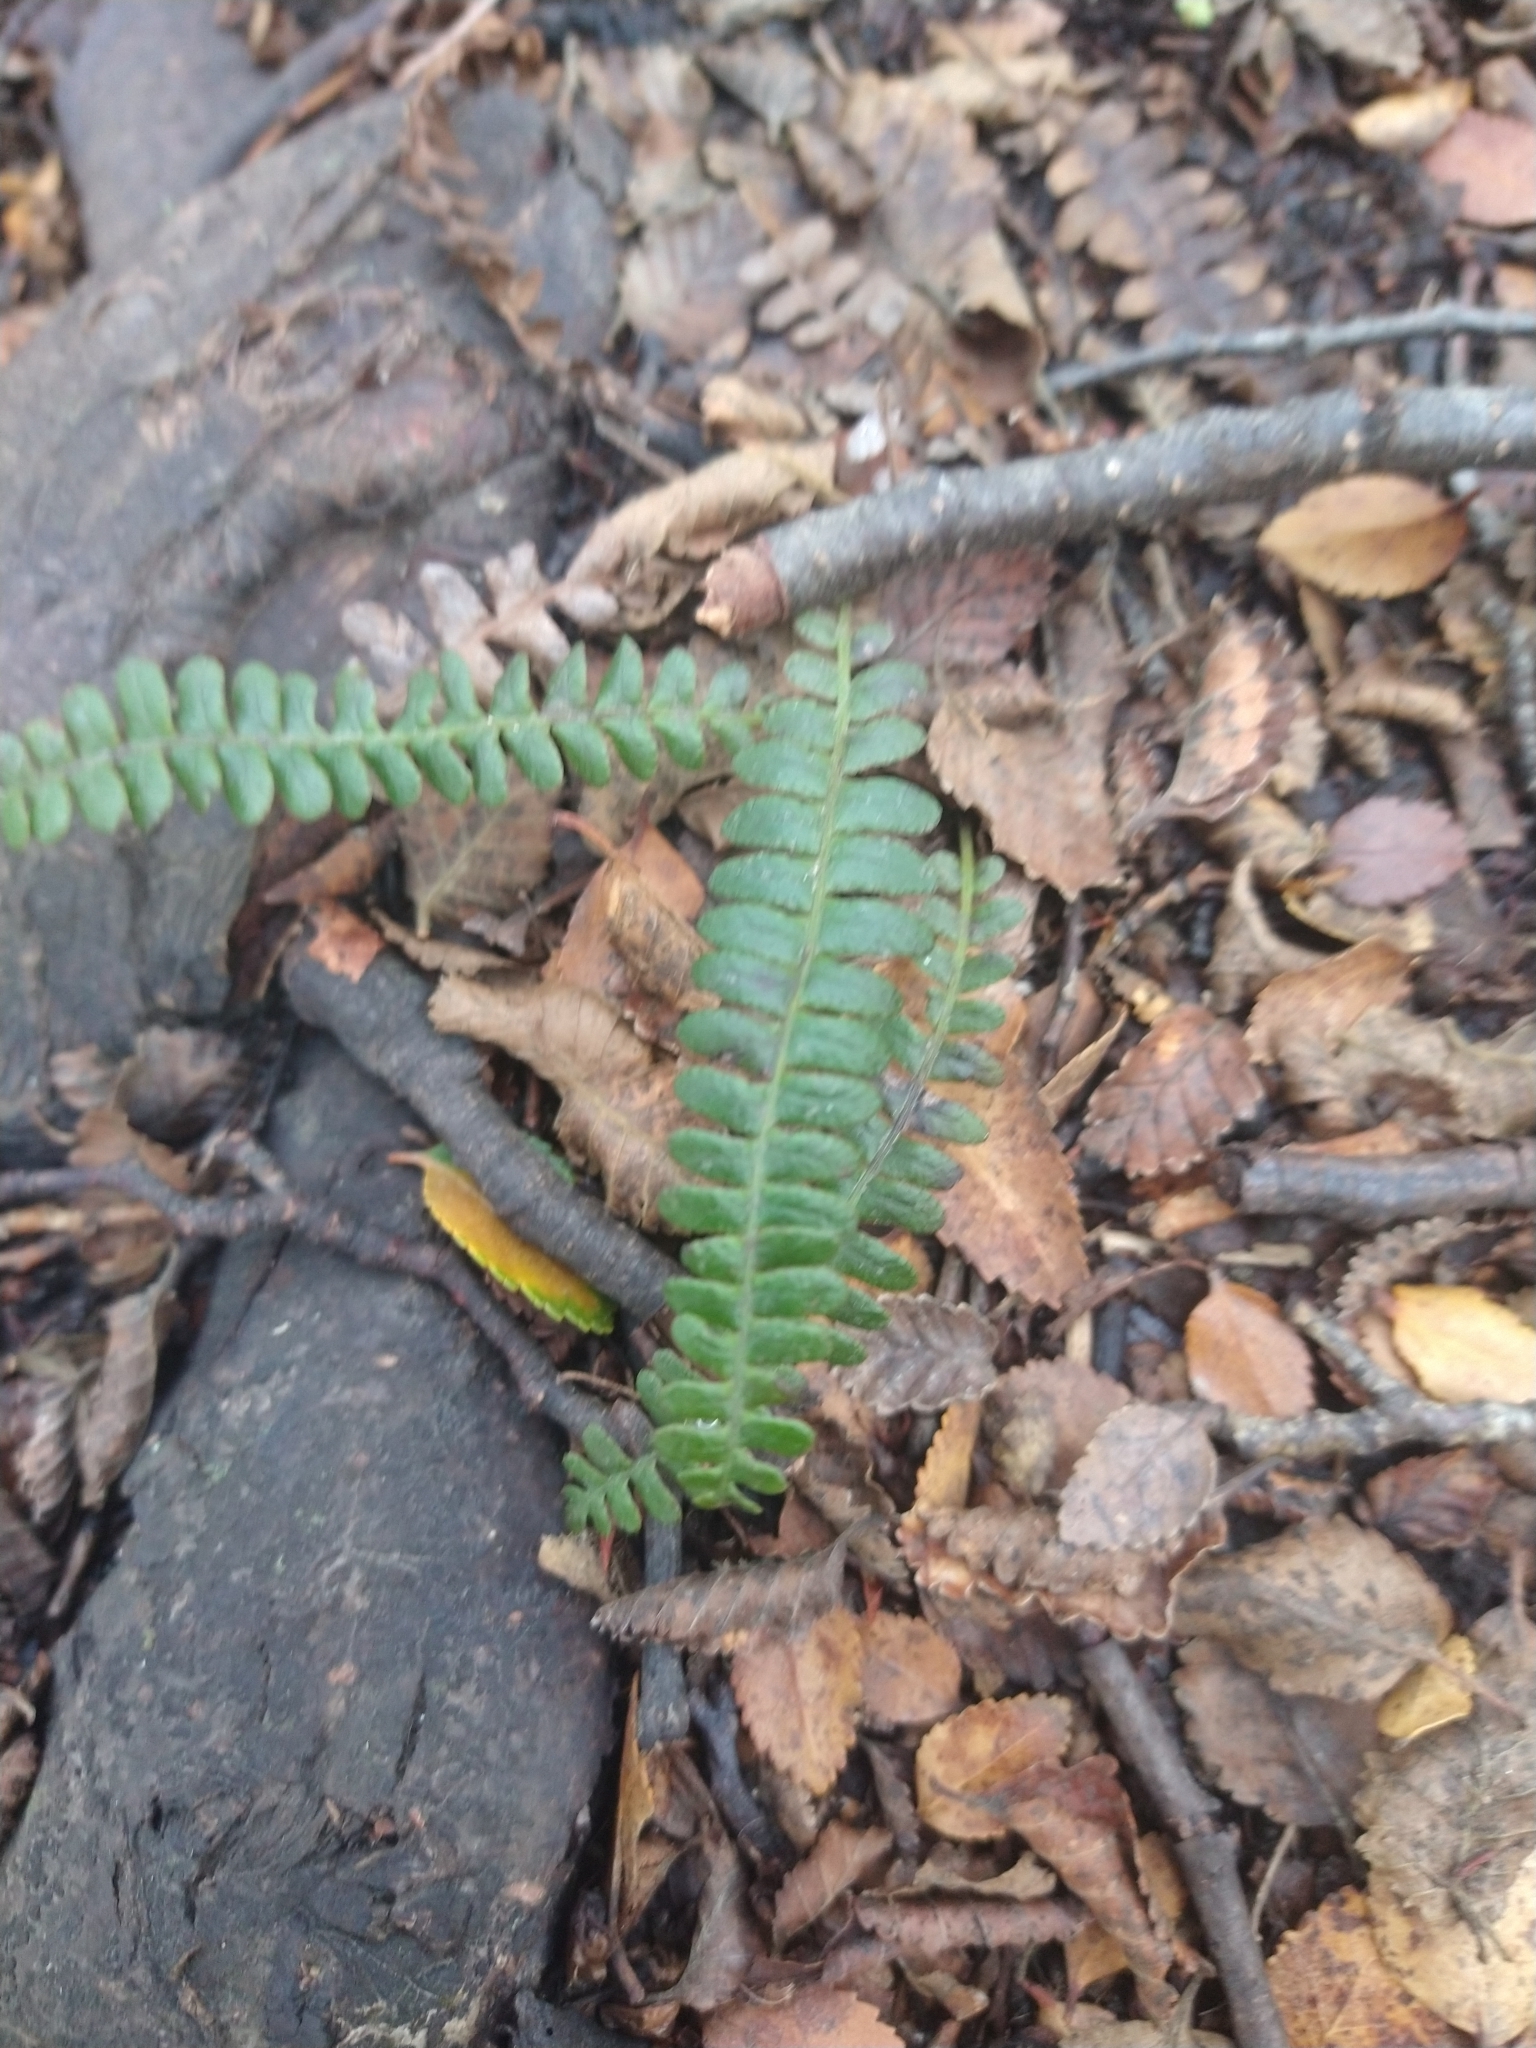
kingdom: Plantae
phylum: Tracheophyta
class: Polypodiopsida
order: Polypodiales
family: Blechnaceae
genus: Austroblechnum
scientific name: Austroblechnum penna-marina
